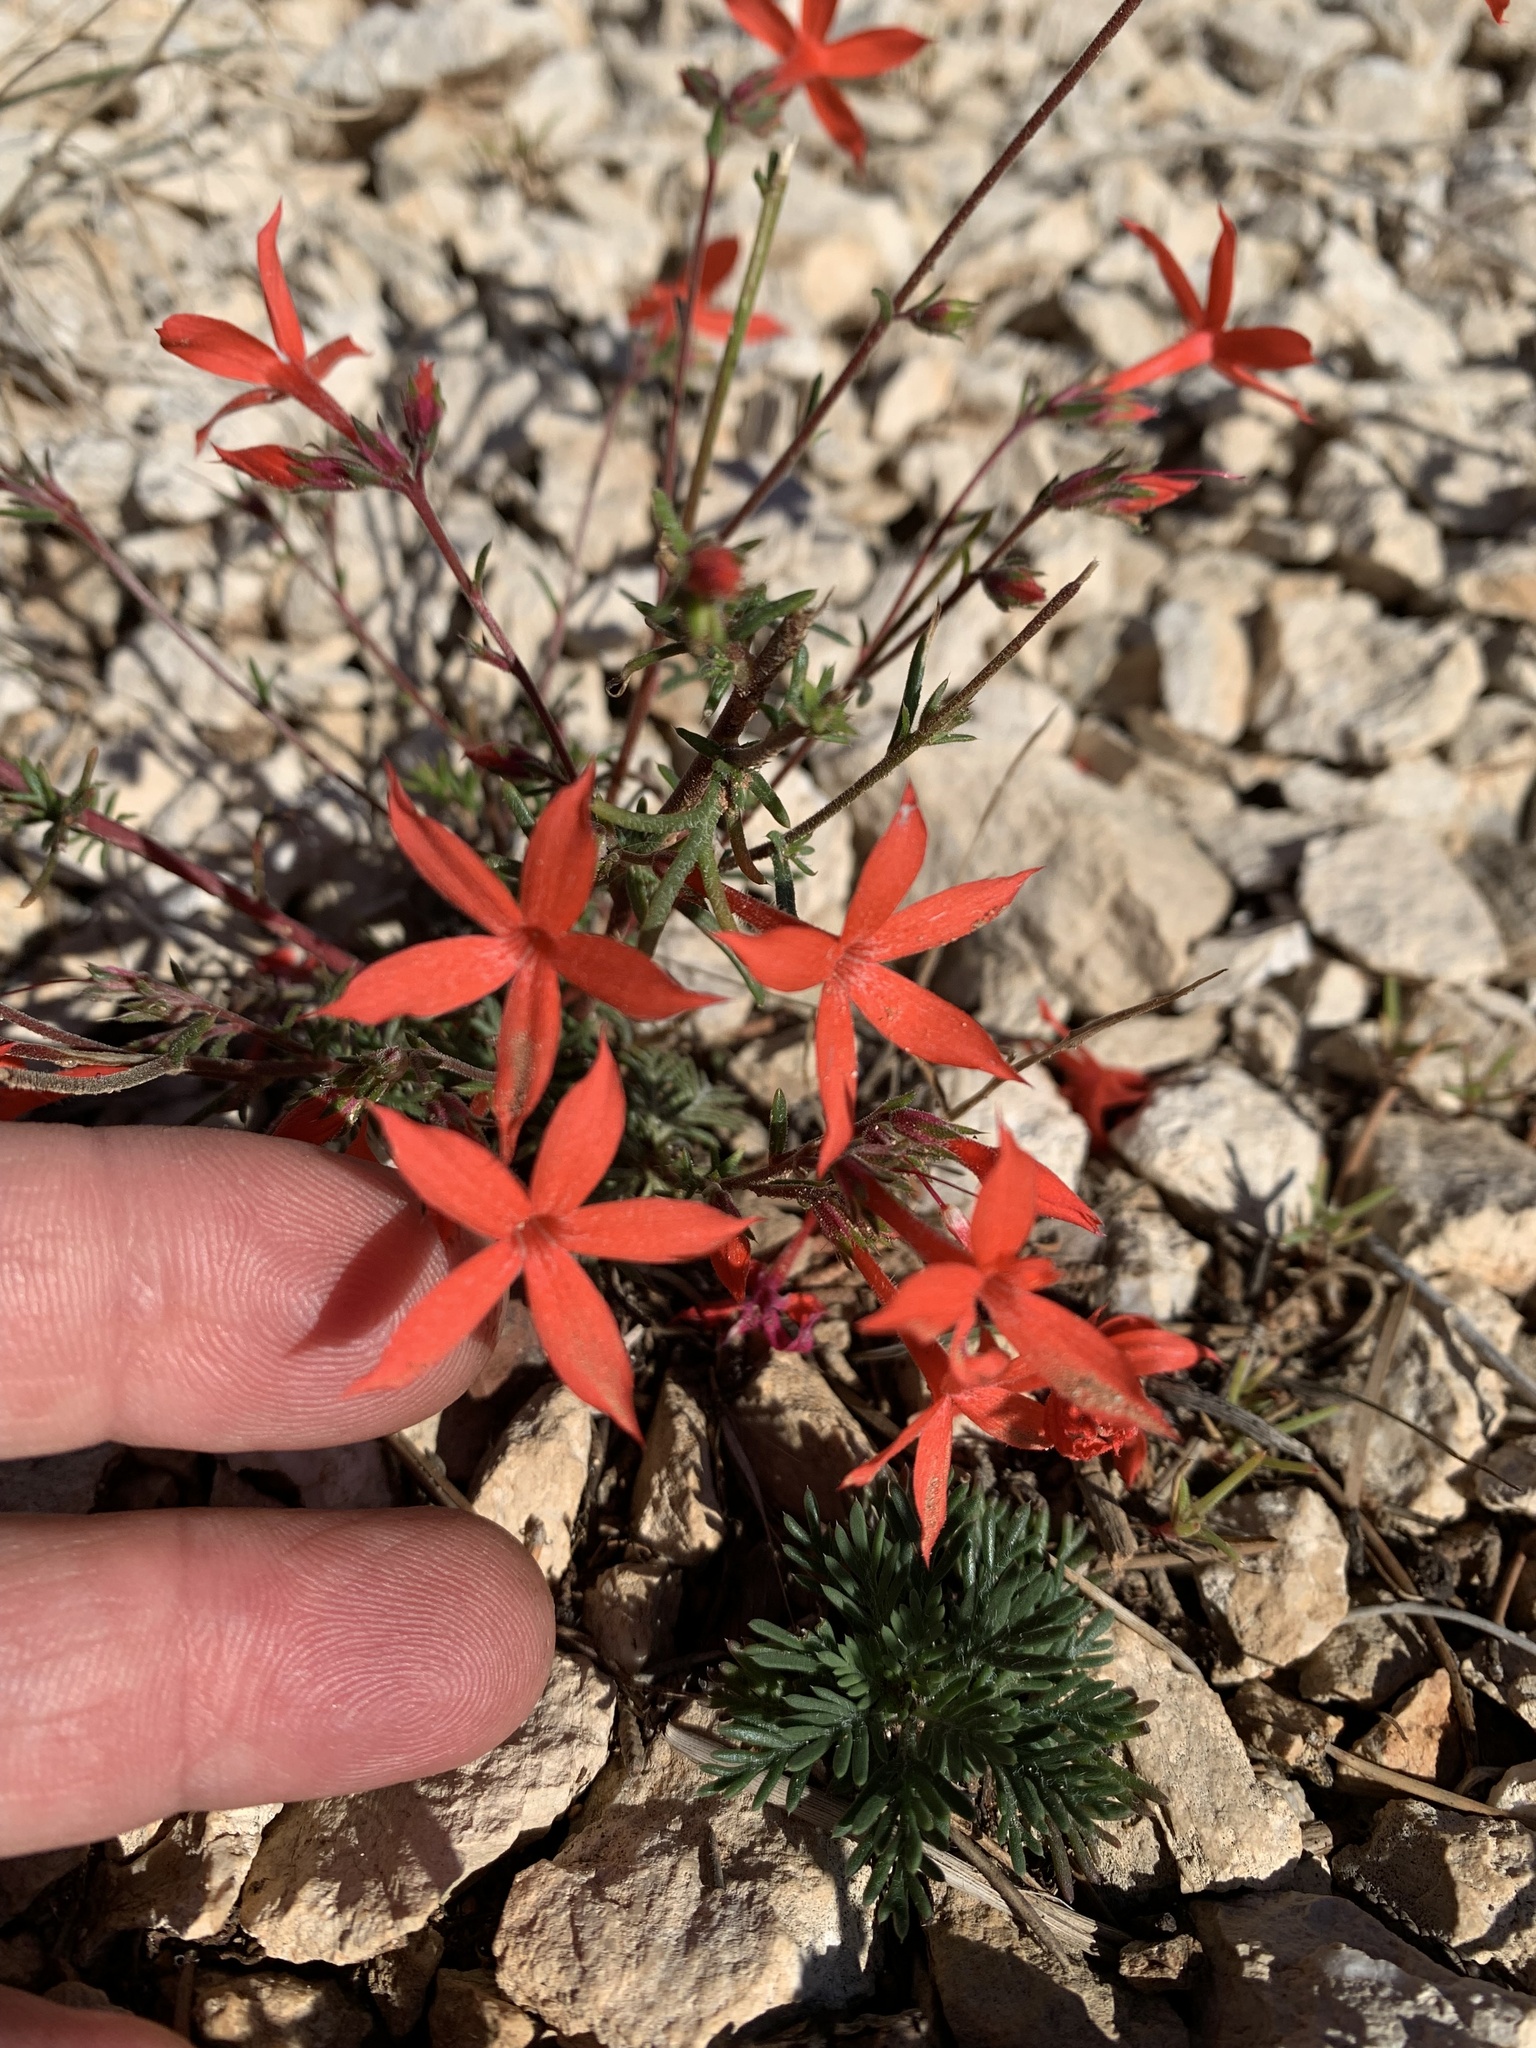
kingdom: Plantae
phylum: Tracheophyta
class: Magnoliopsida
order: Ericales
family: Polemoniaceae
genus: Ipomopsis
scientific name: Ipomopsis arizonica
